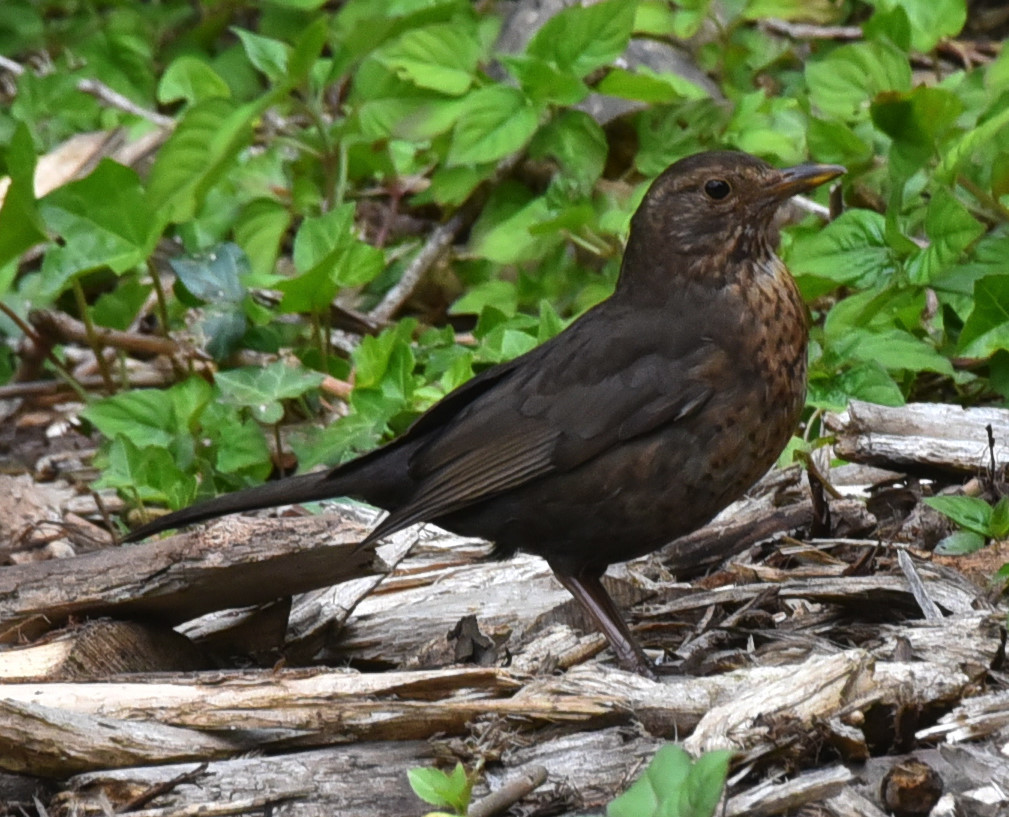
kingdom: Animalia
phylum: Chordata
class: Aves
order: Passeriformes
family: Turdidae
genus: Turdus
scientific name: Turdus merula
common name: Common blackbird
